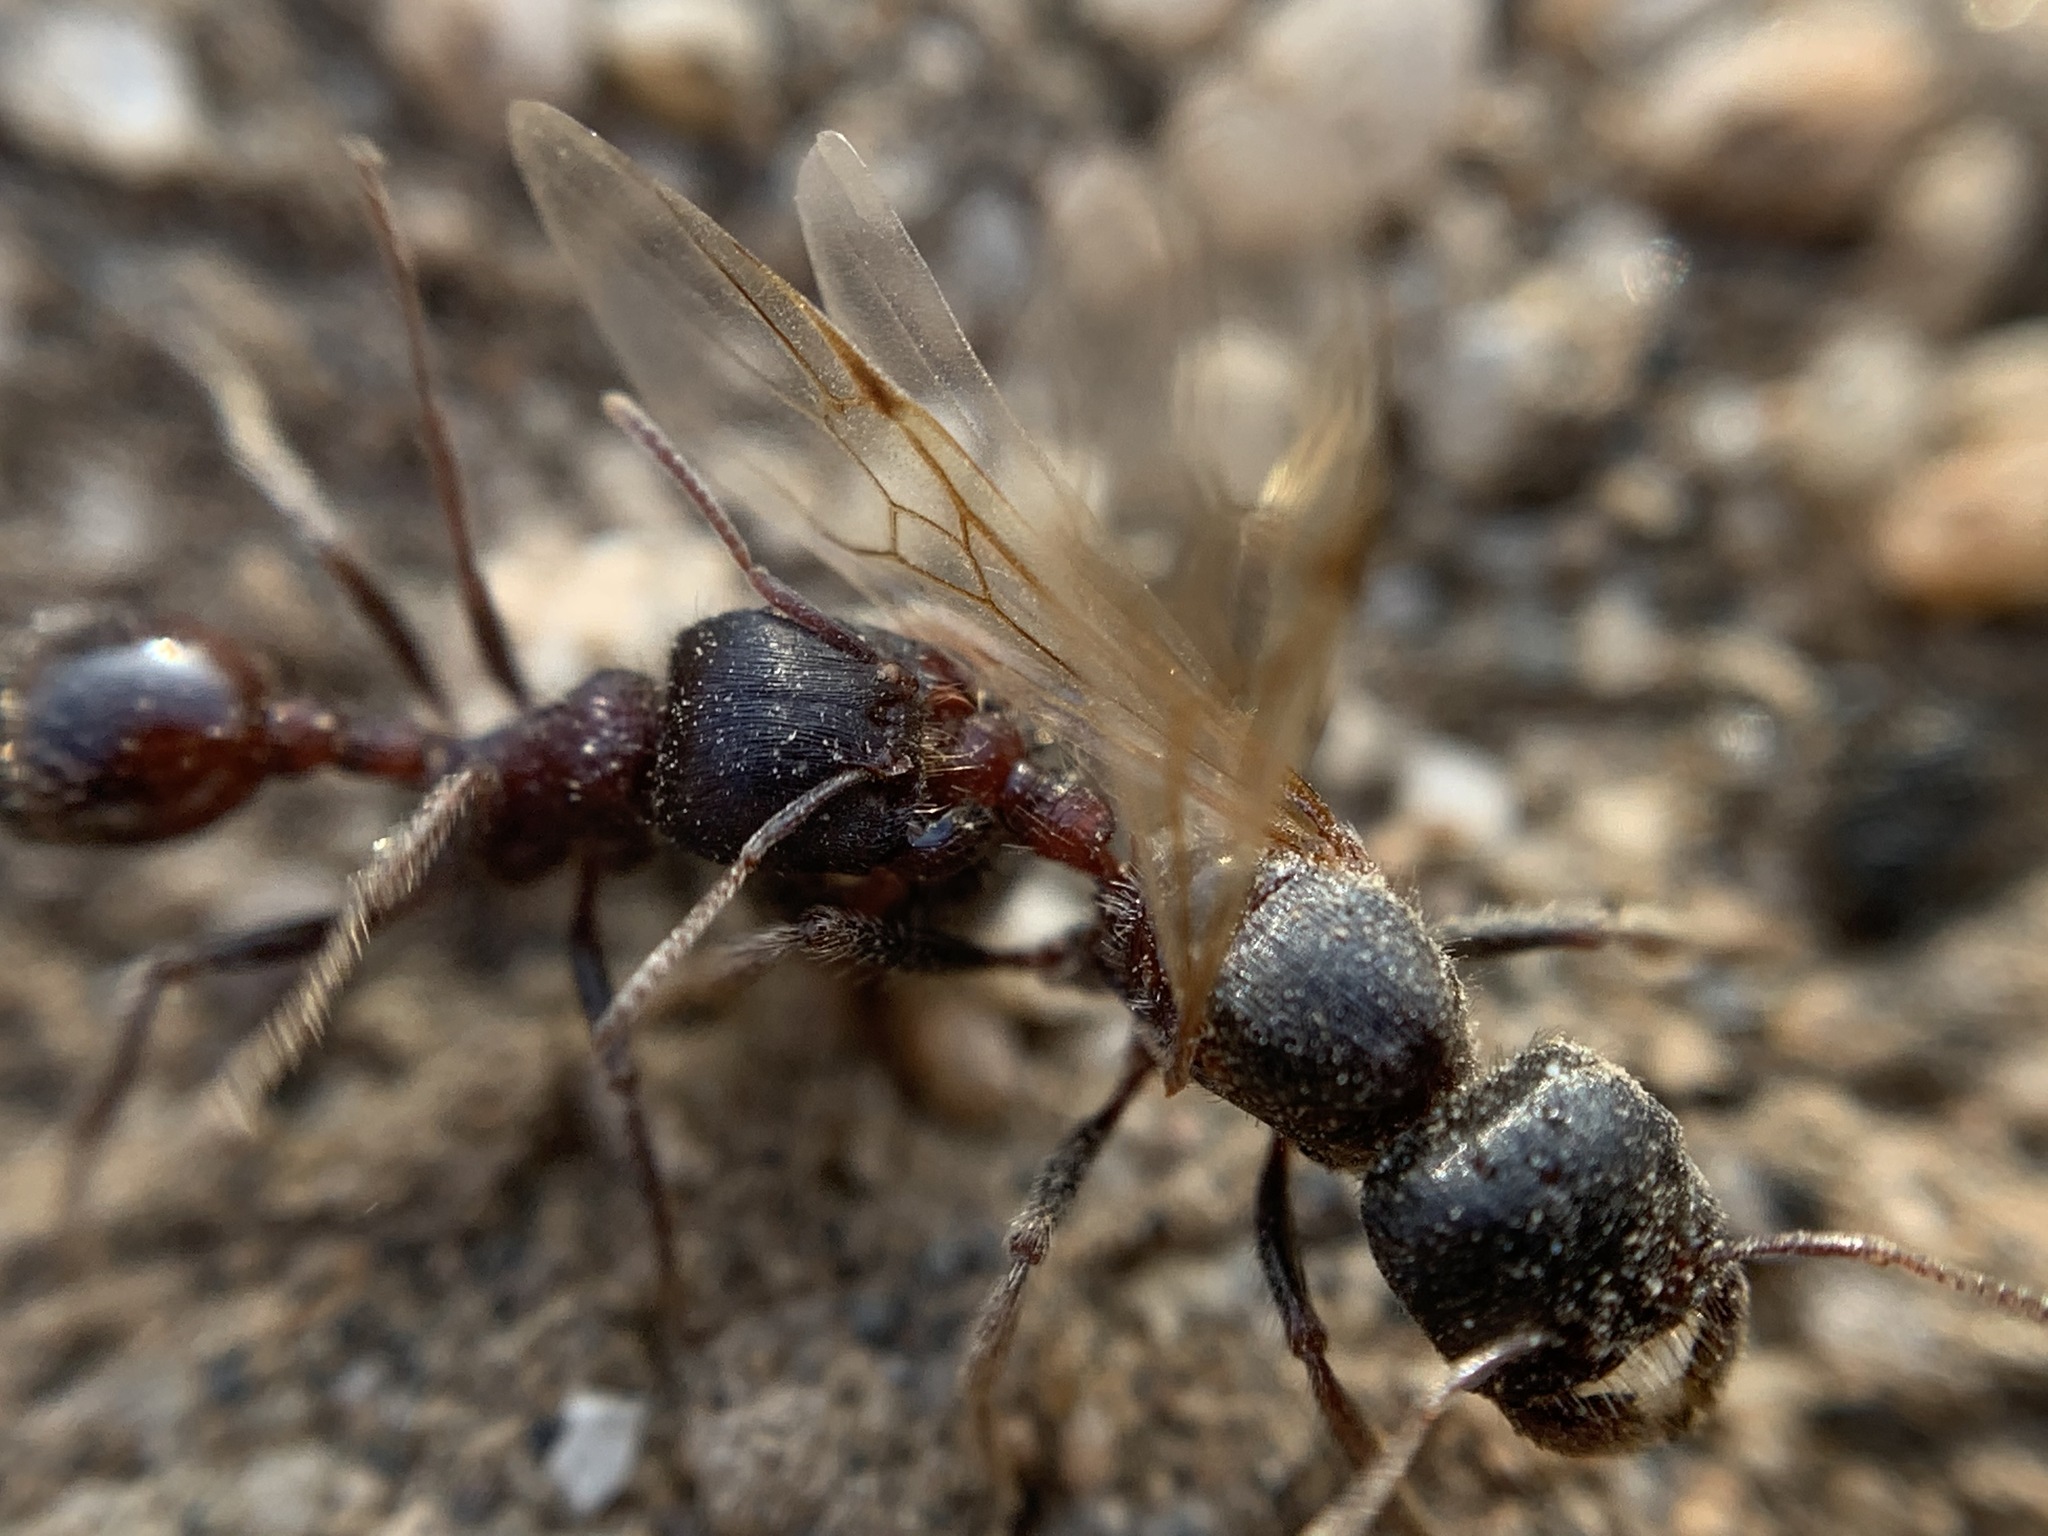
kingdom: Animalia
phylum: Arthropoda
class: Insecta
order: Hymenoptera
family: Formicidae
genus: Pogonomyrmex
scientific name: Pogonomyrmex rugosus
